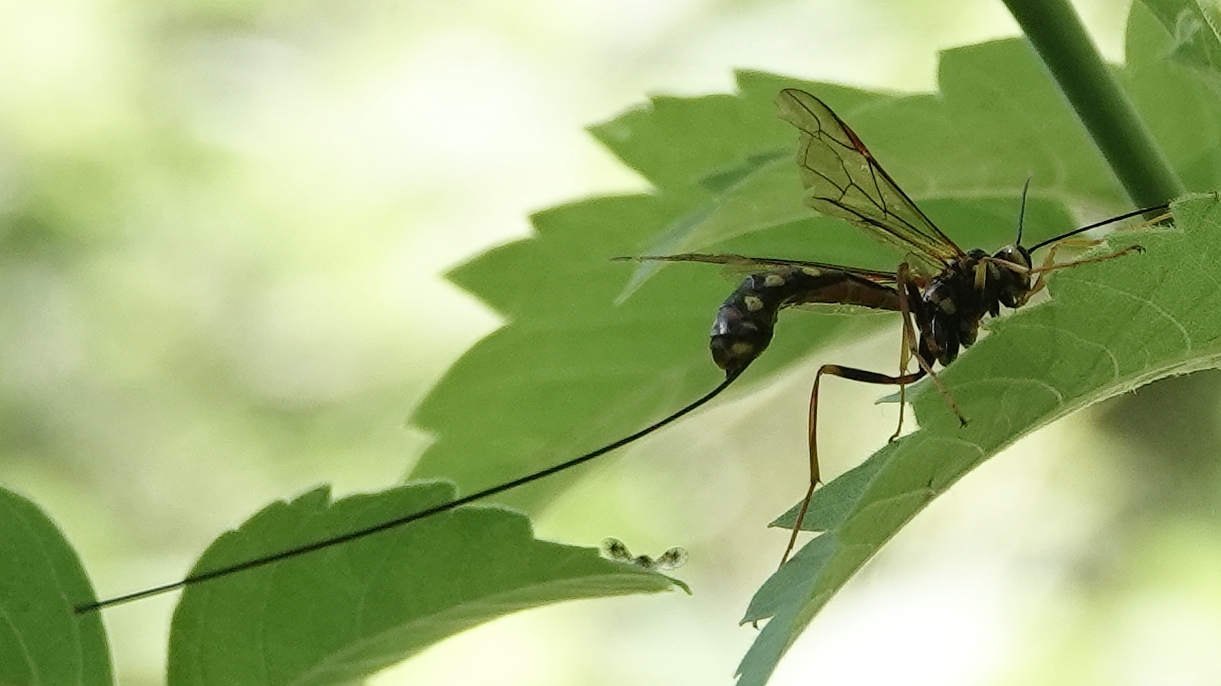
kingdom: Animalia
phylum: Arthropoda
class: Insecta
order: Hymenoptera
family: Ichneumonidae
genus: Megarhyssa
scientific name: Megarhyssa nortoni
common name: Norton's giant ichneumonid wasp
